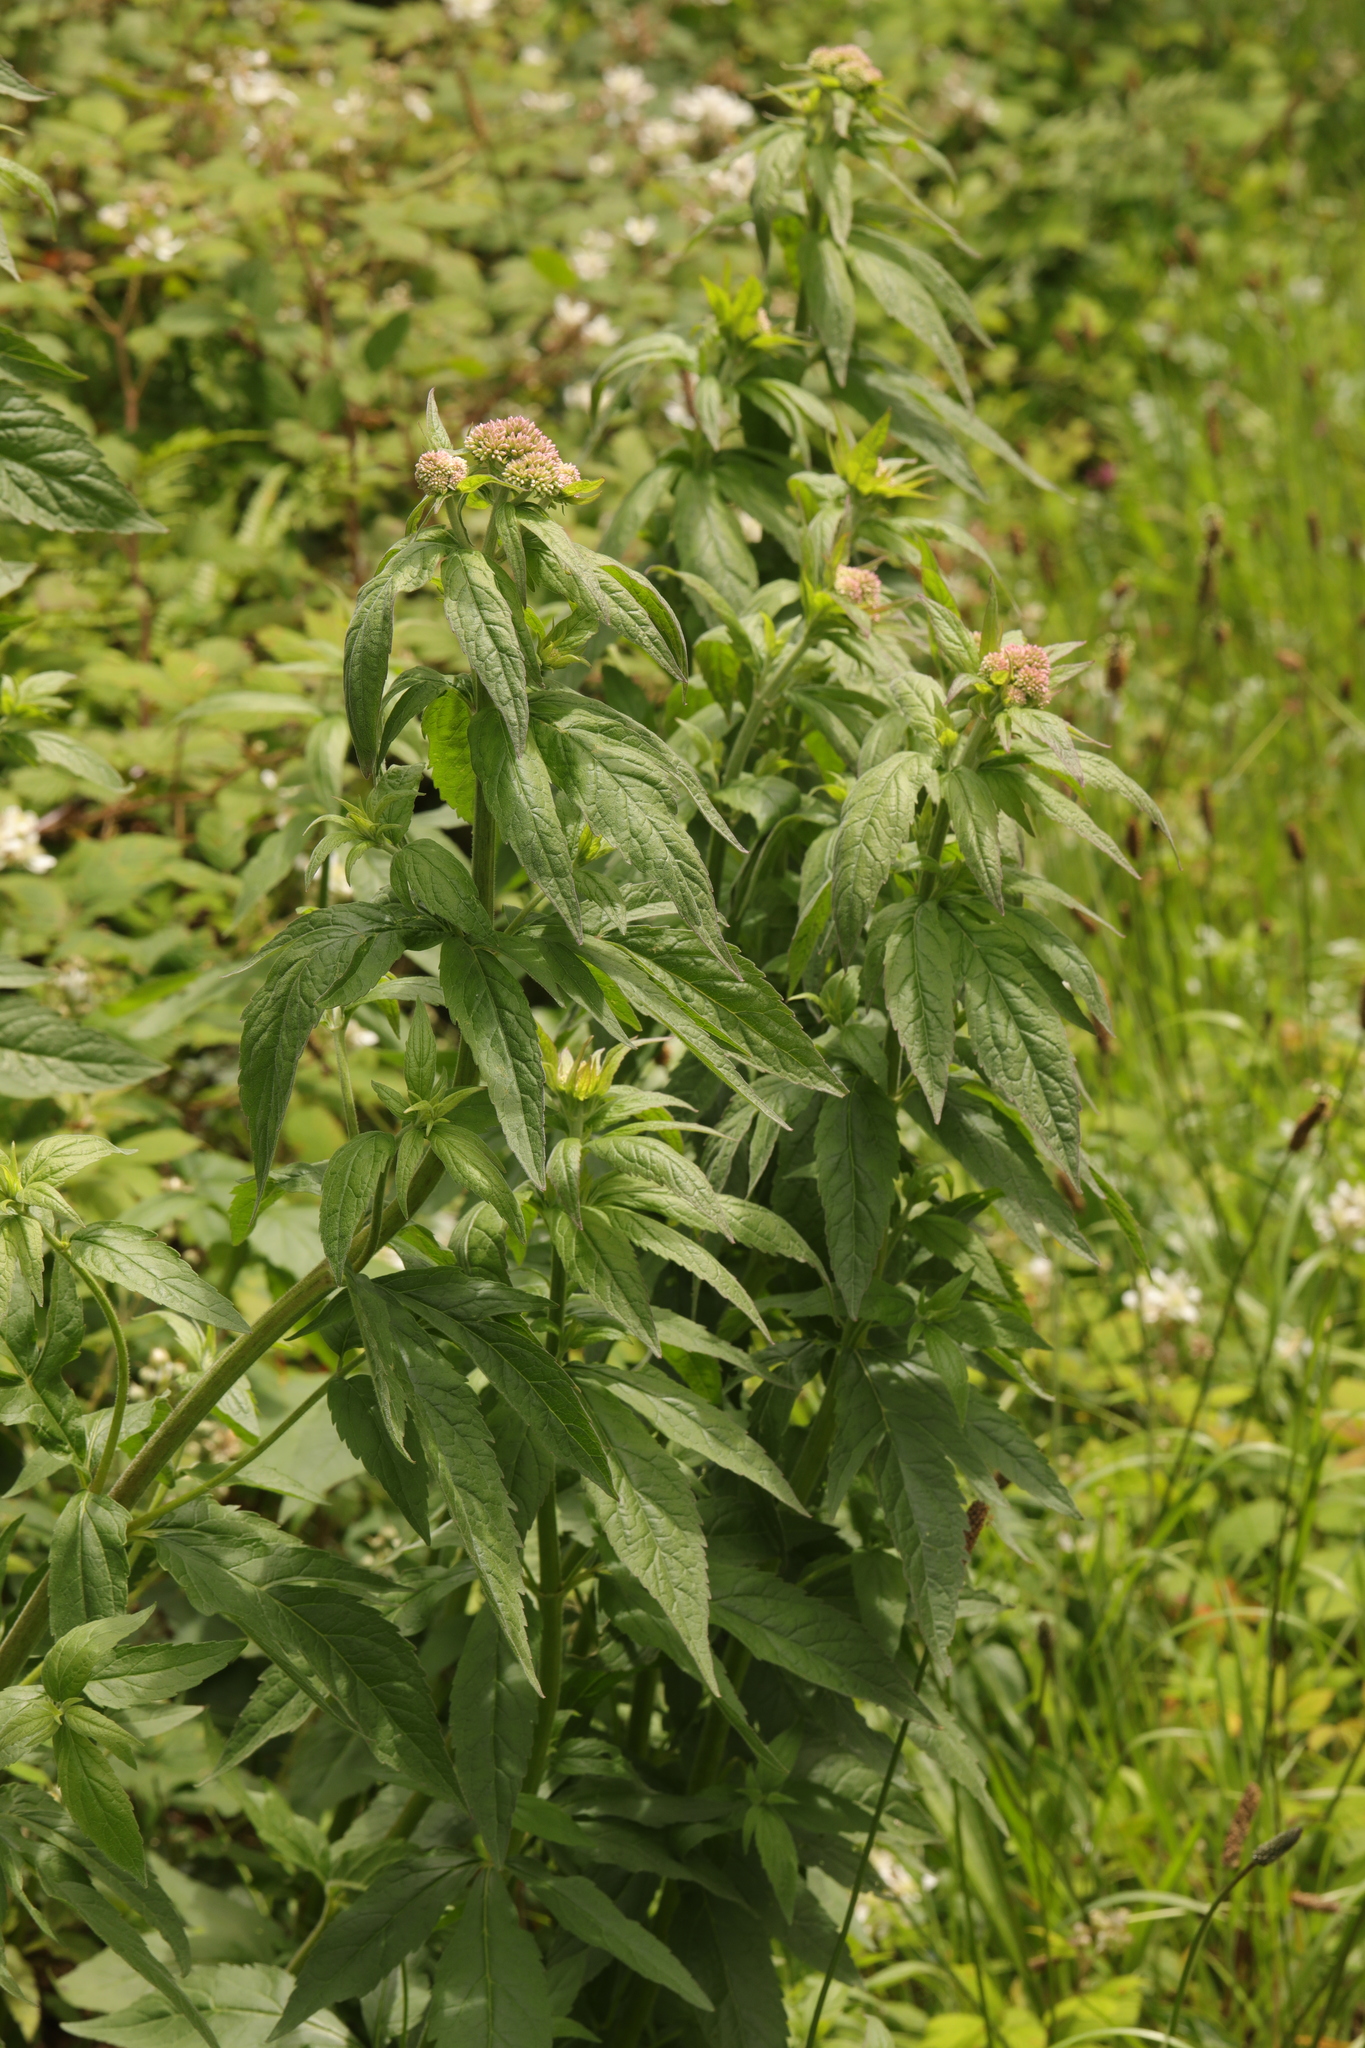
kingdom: Plantae
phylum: Tracheophyta
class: Magnoliopsida
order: Asterales
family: Asteraceae
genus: Eupatorium
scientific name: Eupatorium cannabinum
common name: Hemp-agrimony
